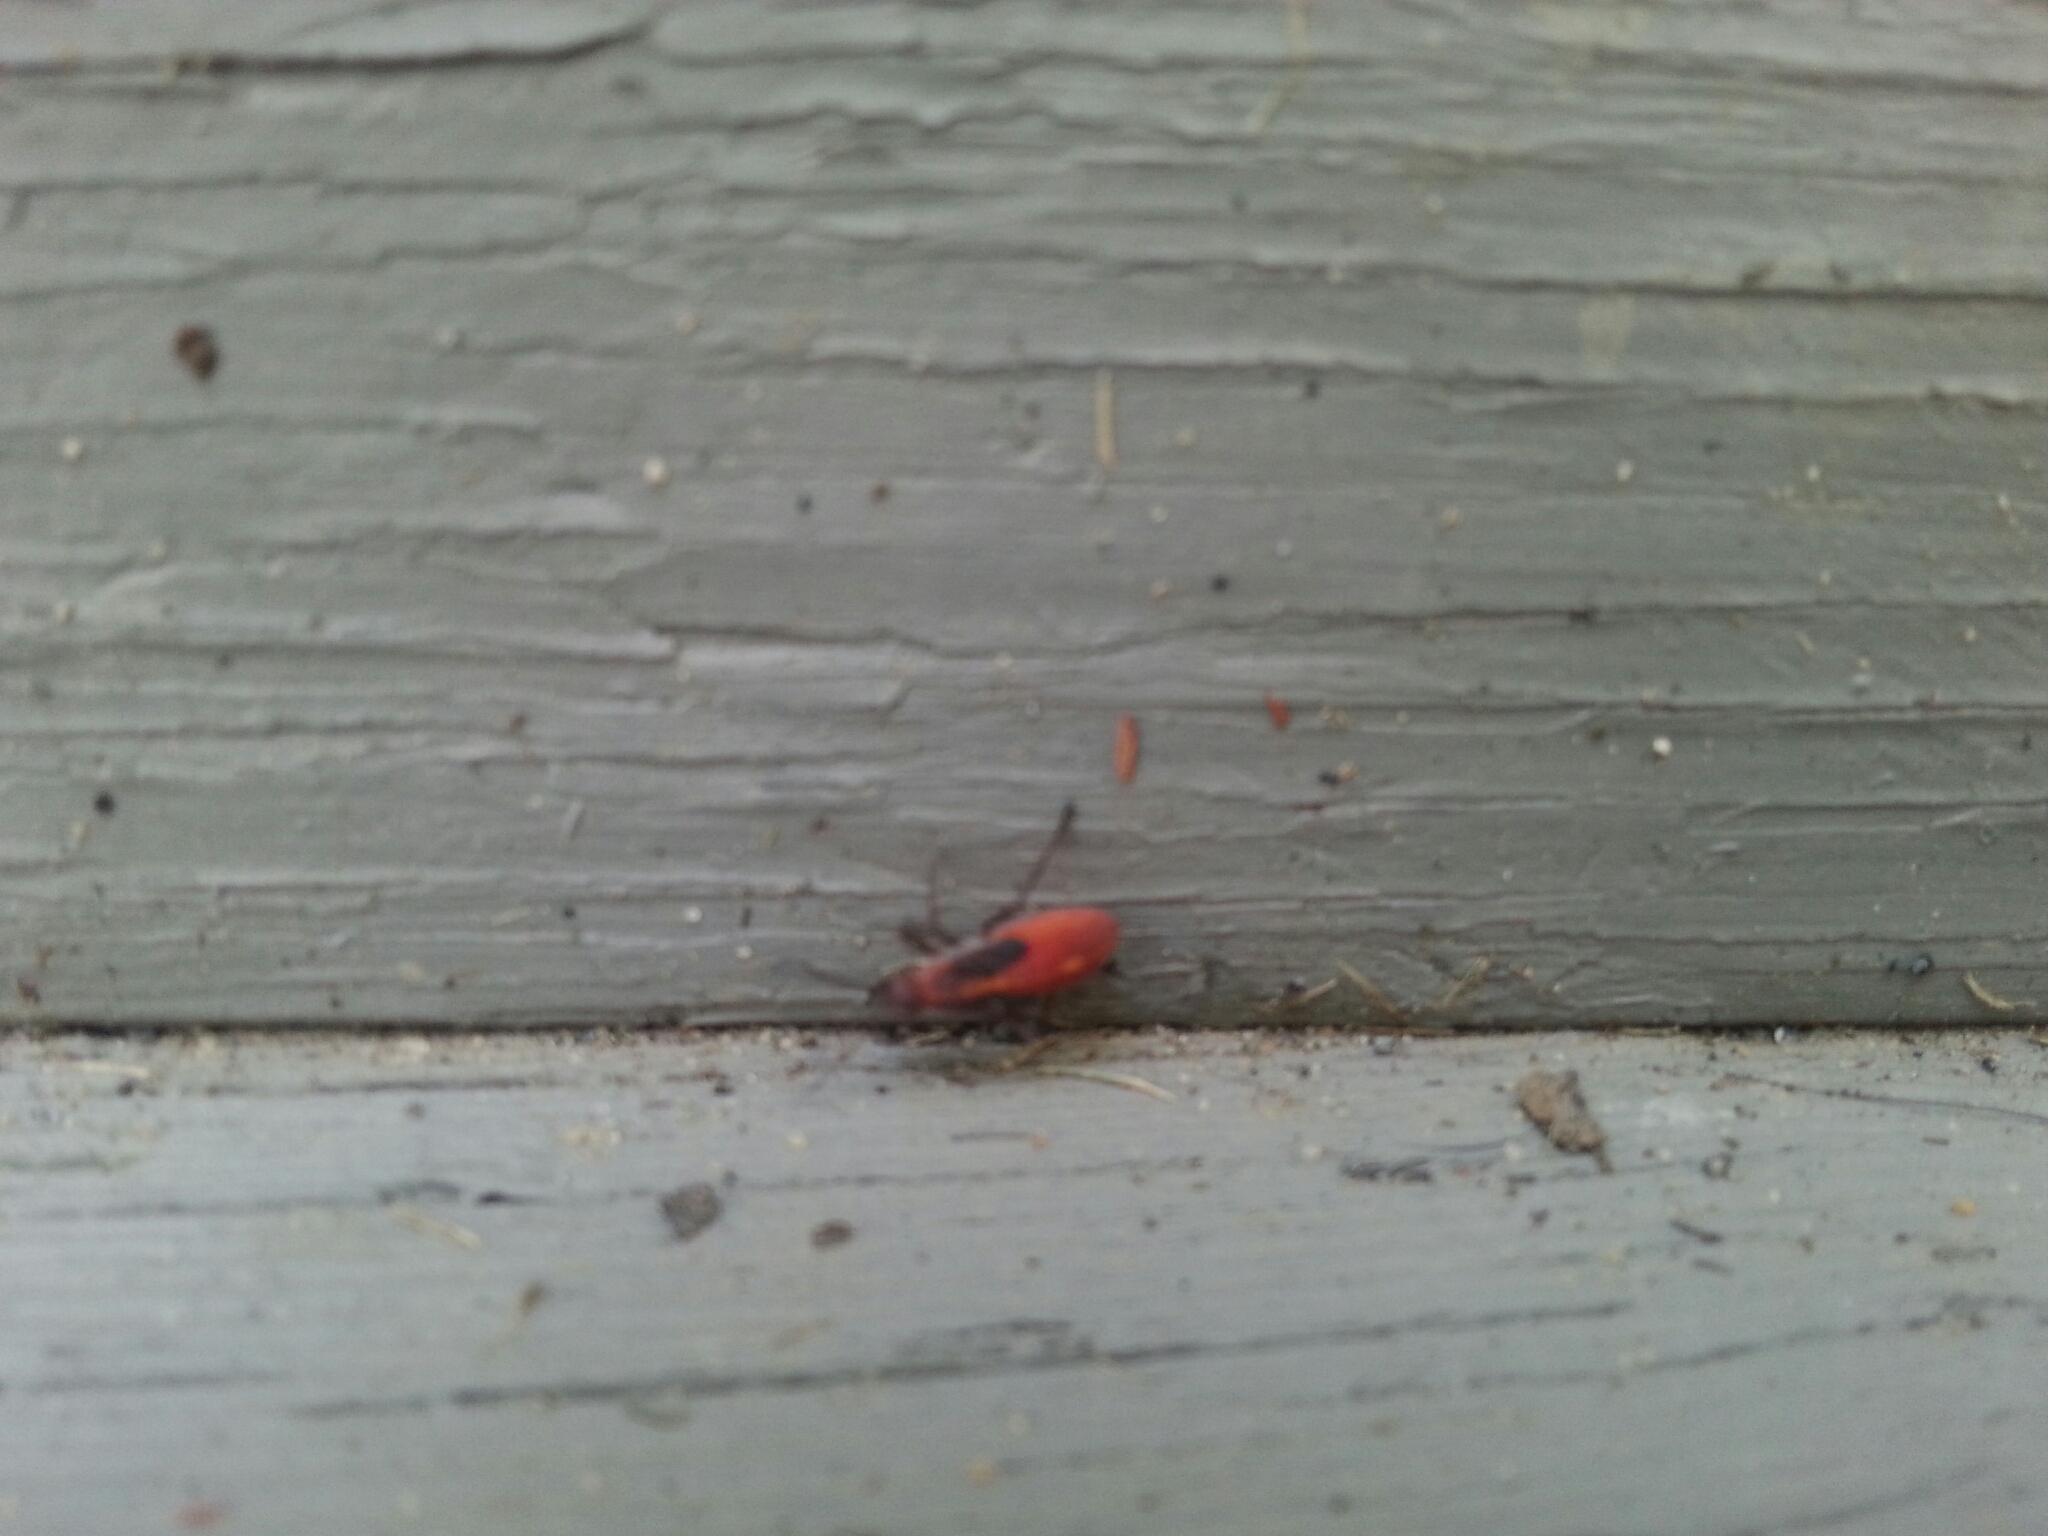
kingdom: Animalia
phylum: Arthropoda
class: Insecta
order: Hemiptera
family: Rhopalidae
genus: Boisea
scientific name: Boisea
